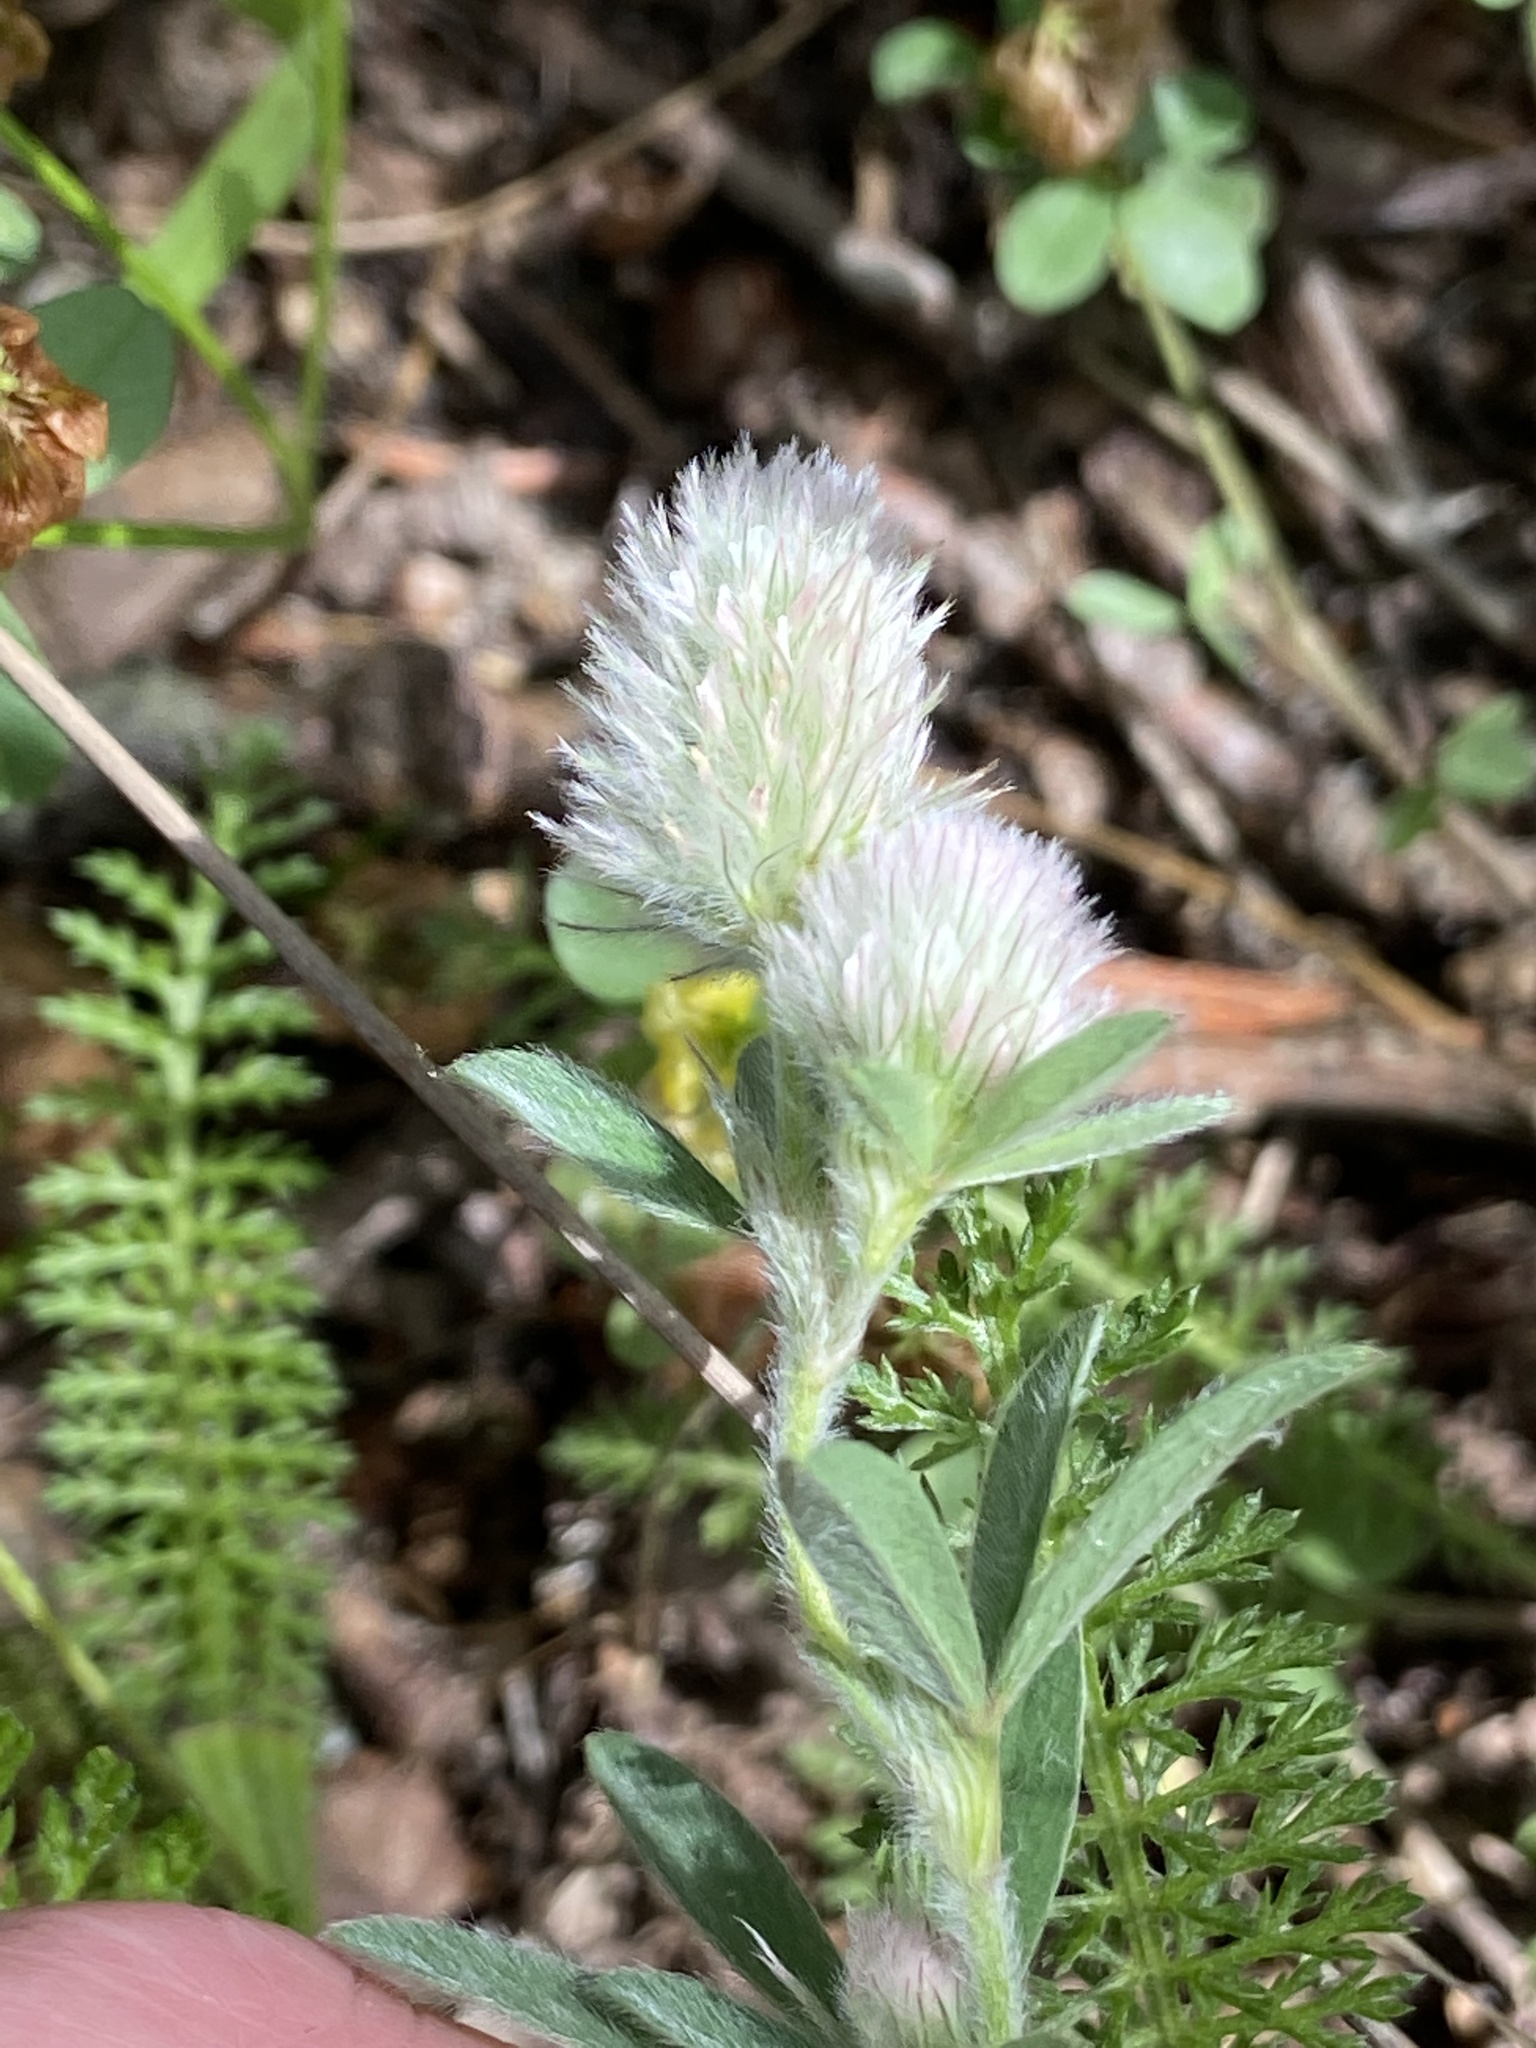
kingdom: Plantae
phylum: Tracheophyta
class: Magnoliopsida
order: Fabales
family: Fabaceae
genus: Trifolium
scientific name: Trifolium arvense
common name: Hare's-foot clover
